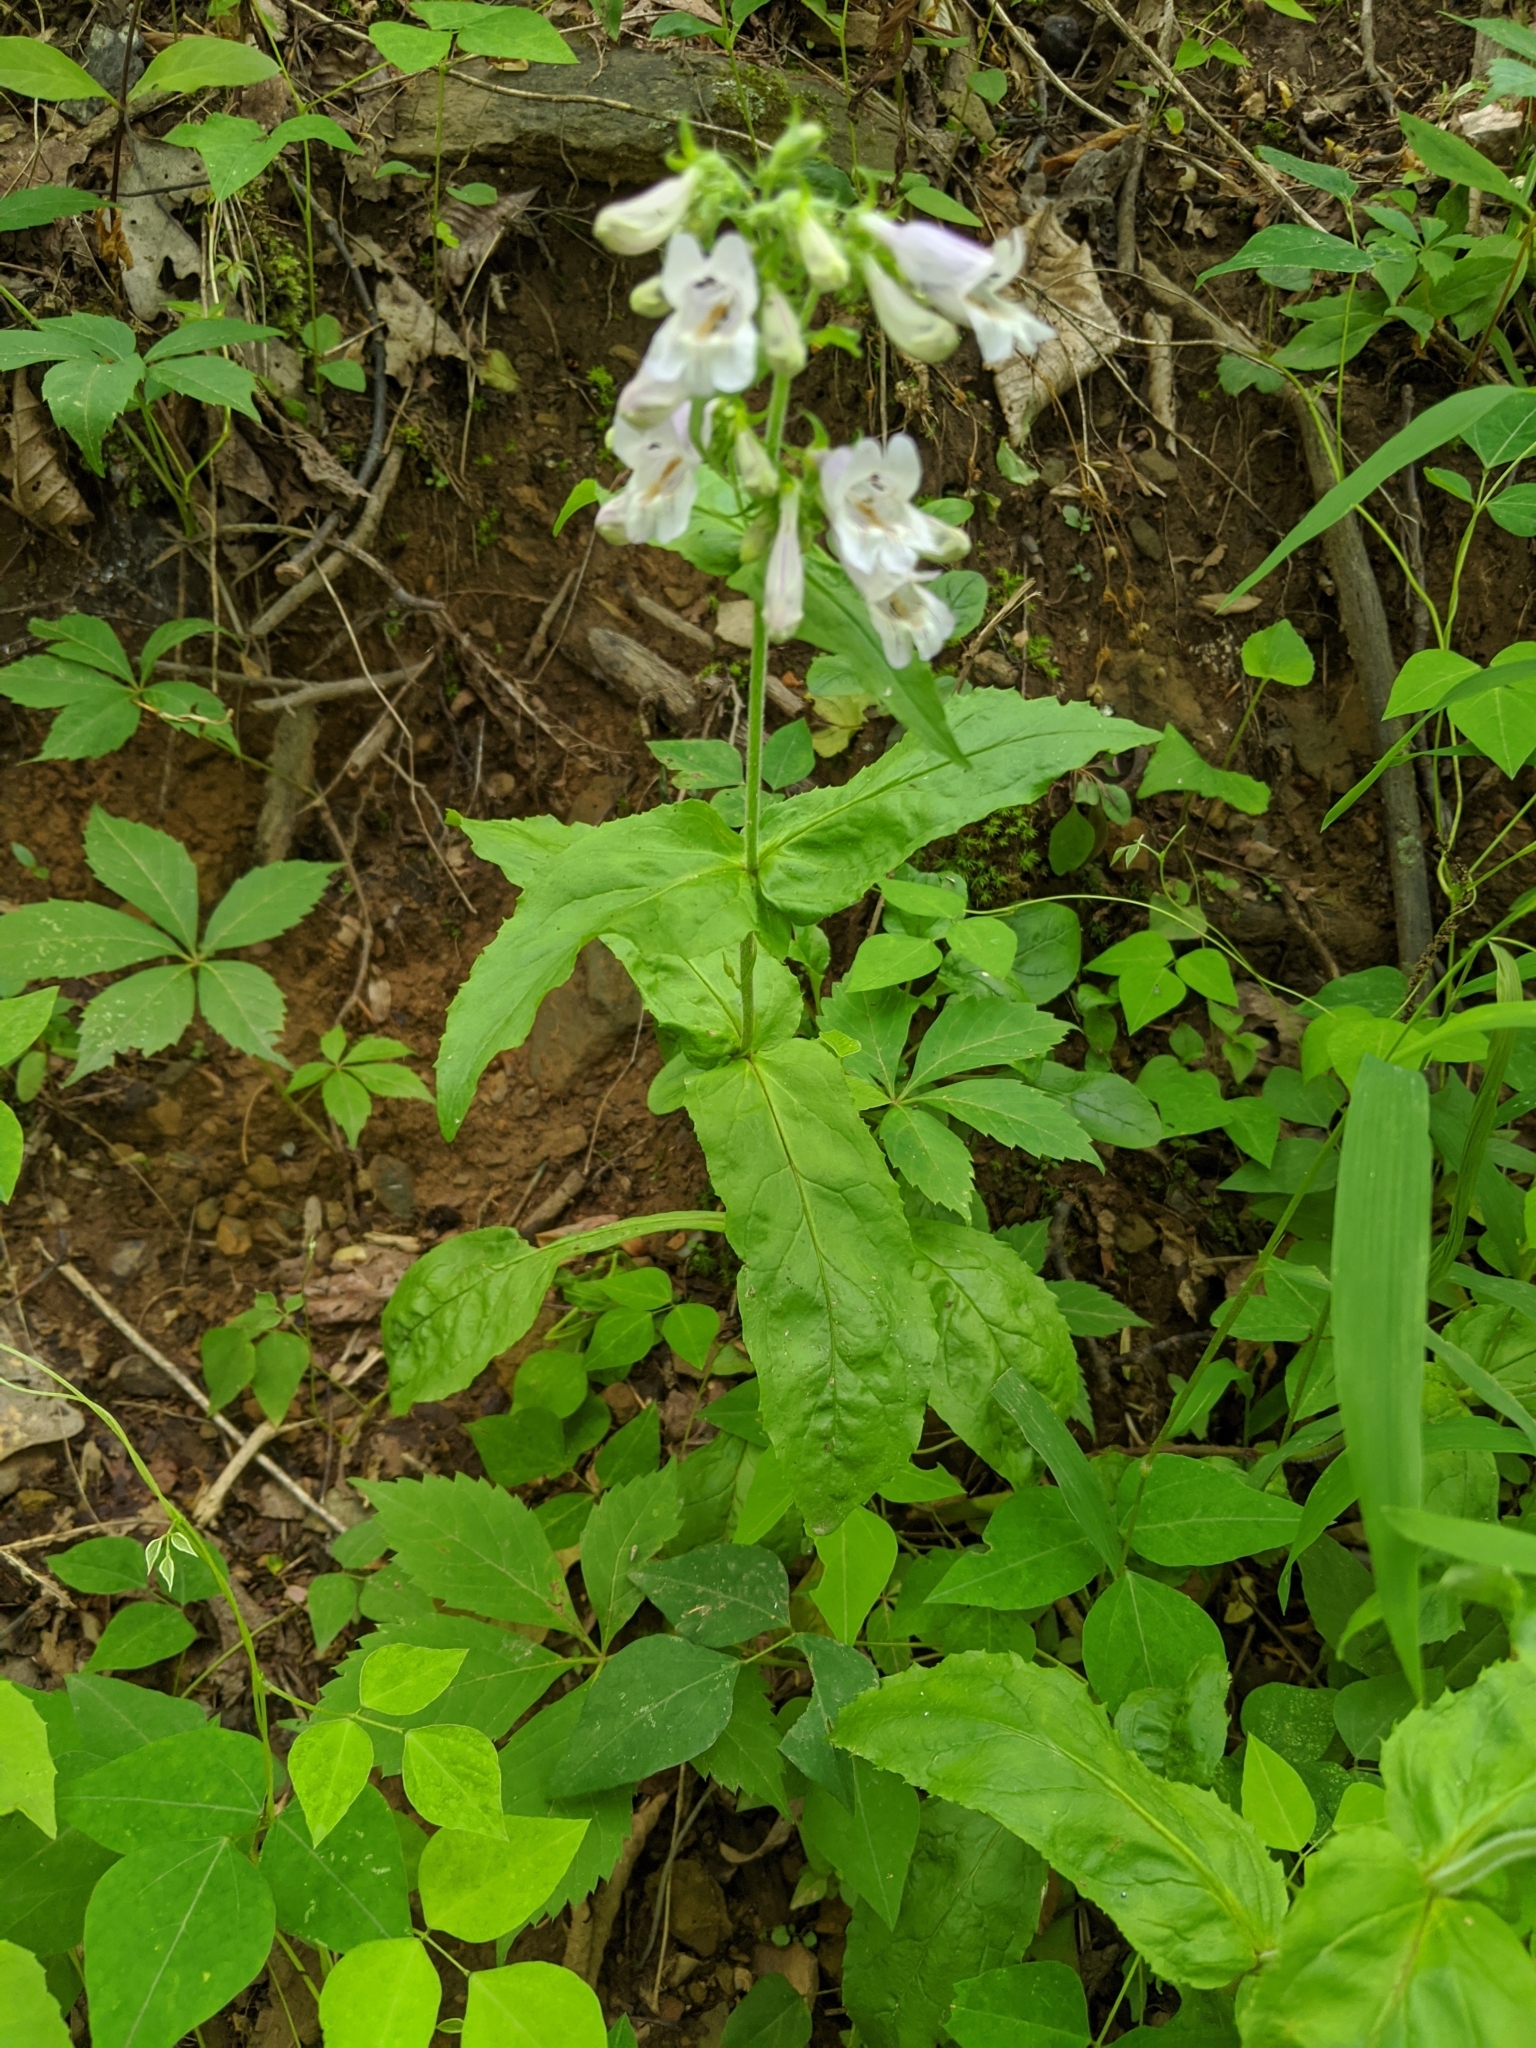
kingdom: Plantae
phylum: Tracheophyta
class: Magnoliopsida
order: Lamiales
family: Plantaginaceae
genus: Penstemon
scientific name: Penstemon canescens
